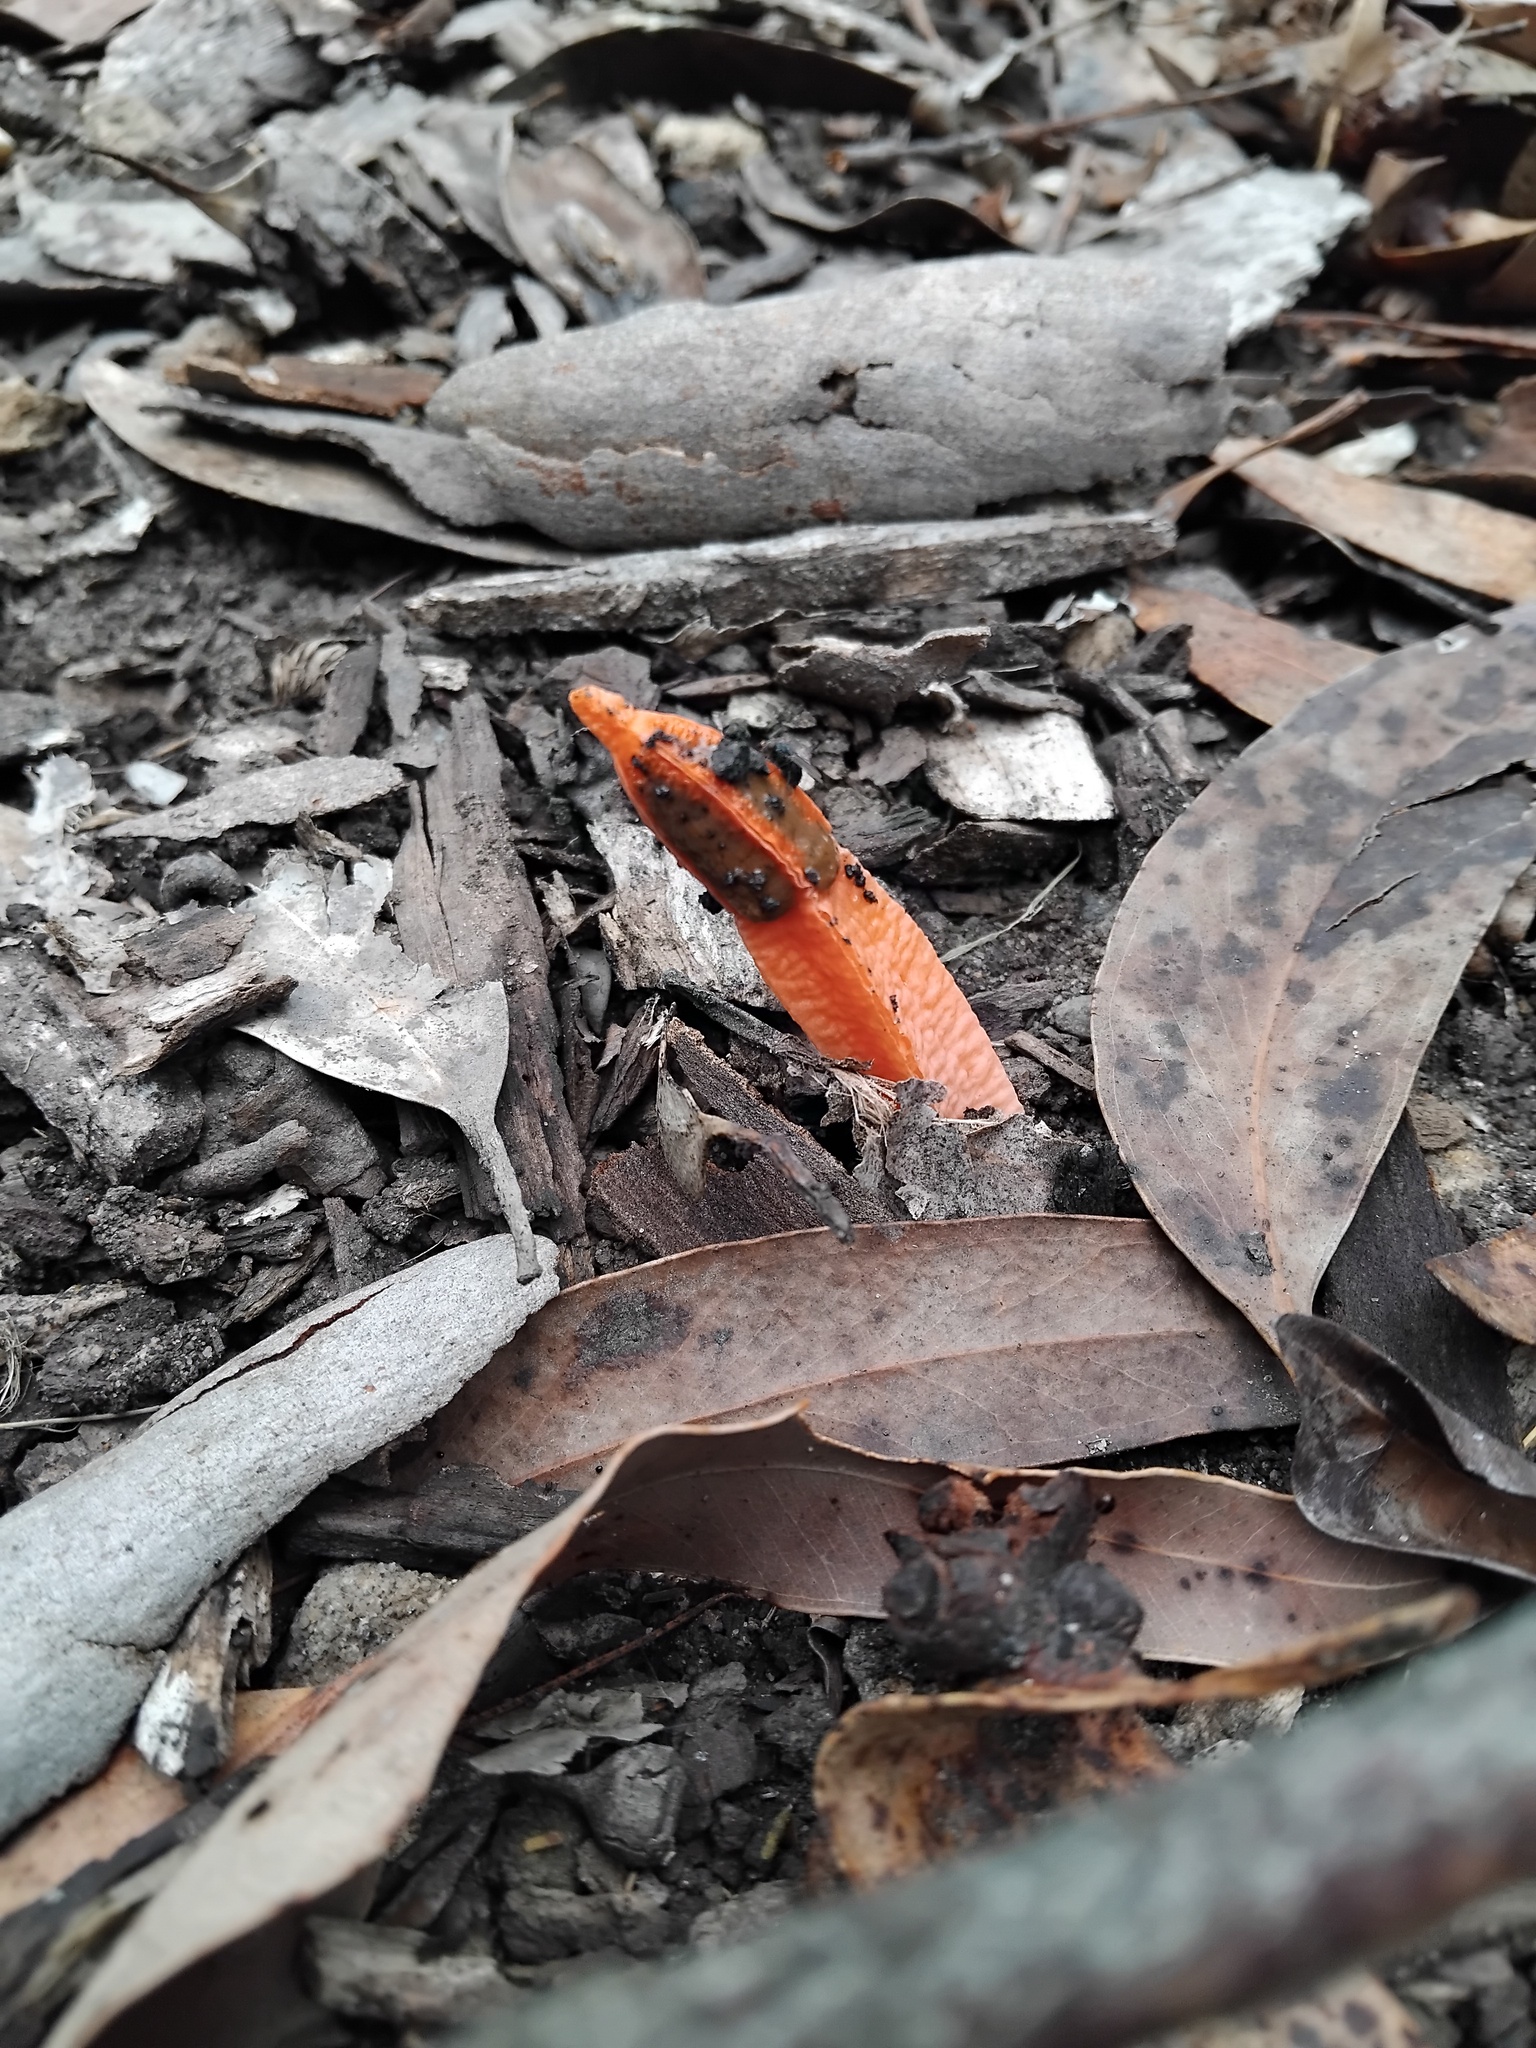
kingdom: Fungi
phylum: Basidiomycota
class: Agaricomycetes
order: Phallales
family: Phallaceae
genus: Lysurus
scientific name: Lysurus mokusin
